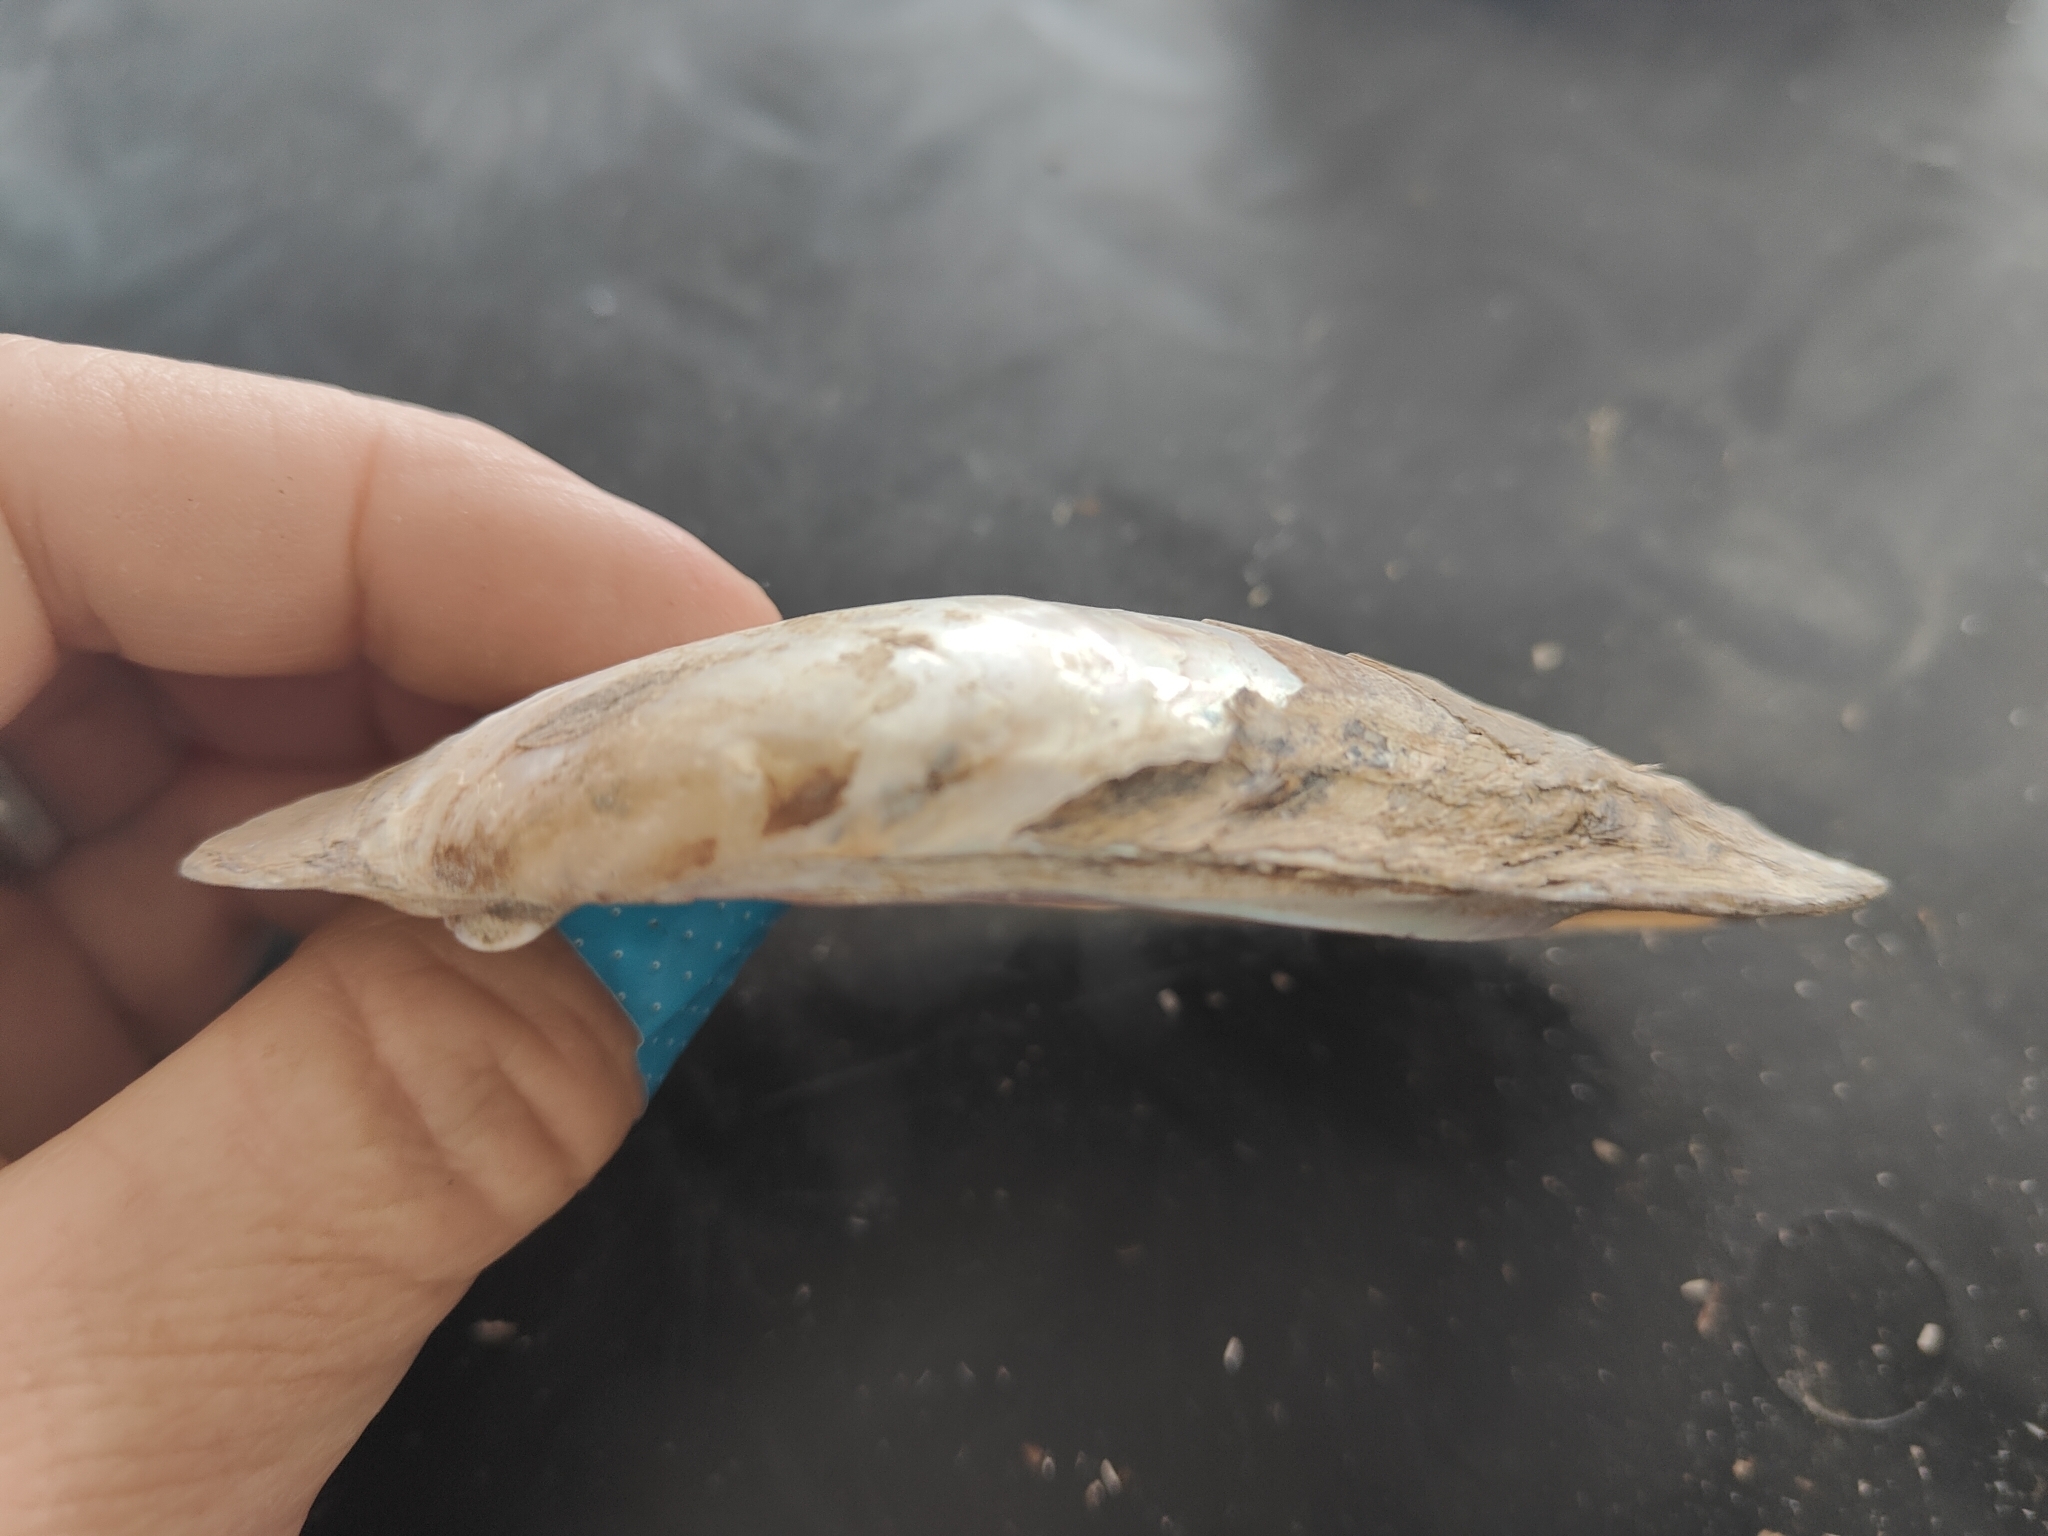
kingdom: Animalia
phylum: Mollusca
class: Bivalvia
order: Unionida
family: Unionidae
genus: Potamilus
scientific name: Potamilus fragilis
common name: Fragile papershell
